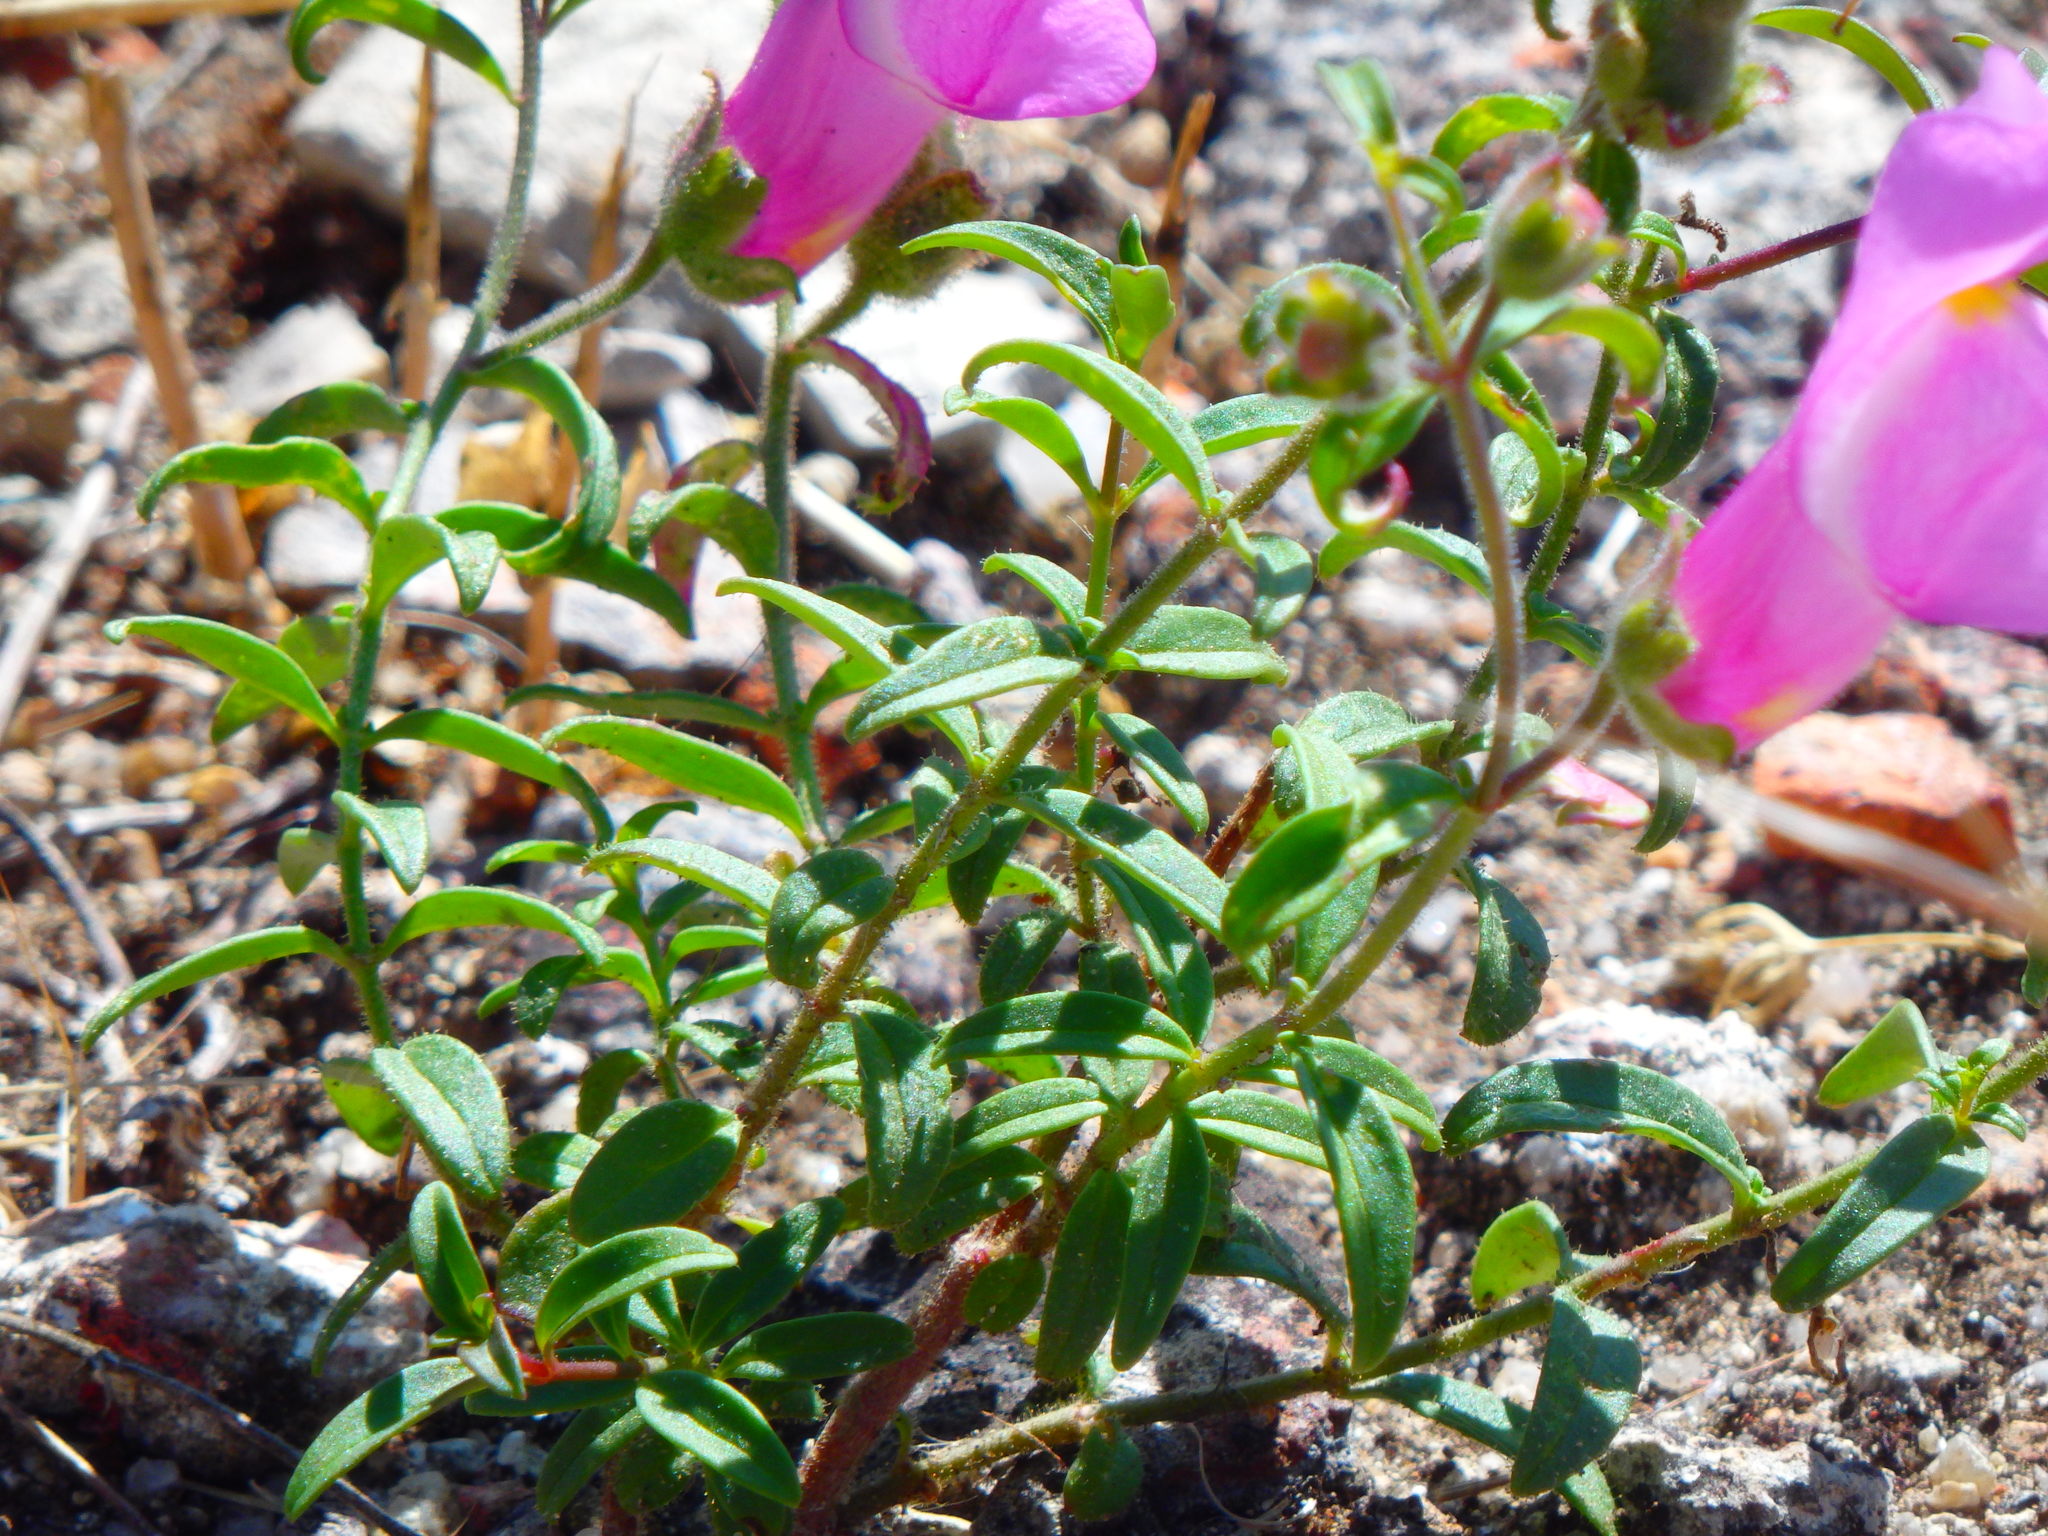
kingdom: Plantae
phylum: Tracheophyta
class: Magnoliopsida
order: Lamiales
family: Plantaginaceae
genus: Antirrhinum
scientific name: Antirrhinum linkianum
